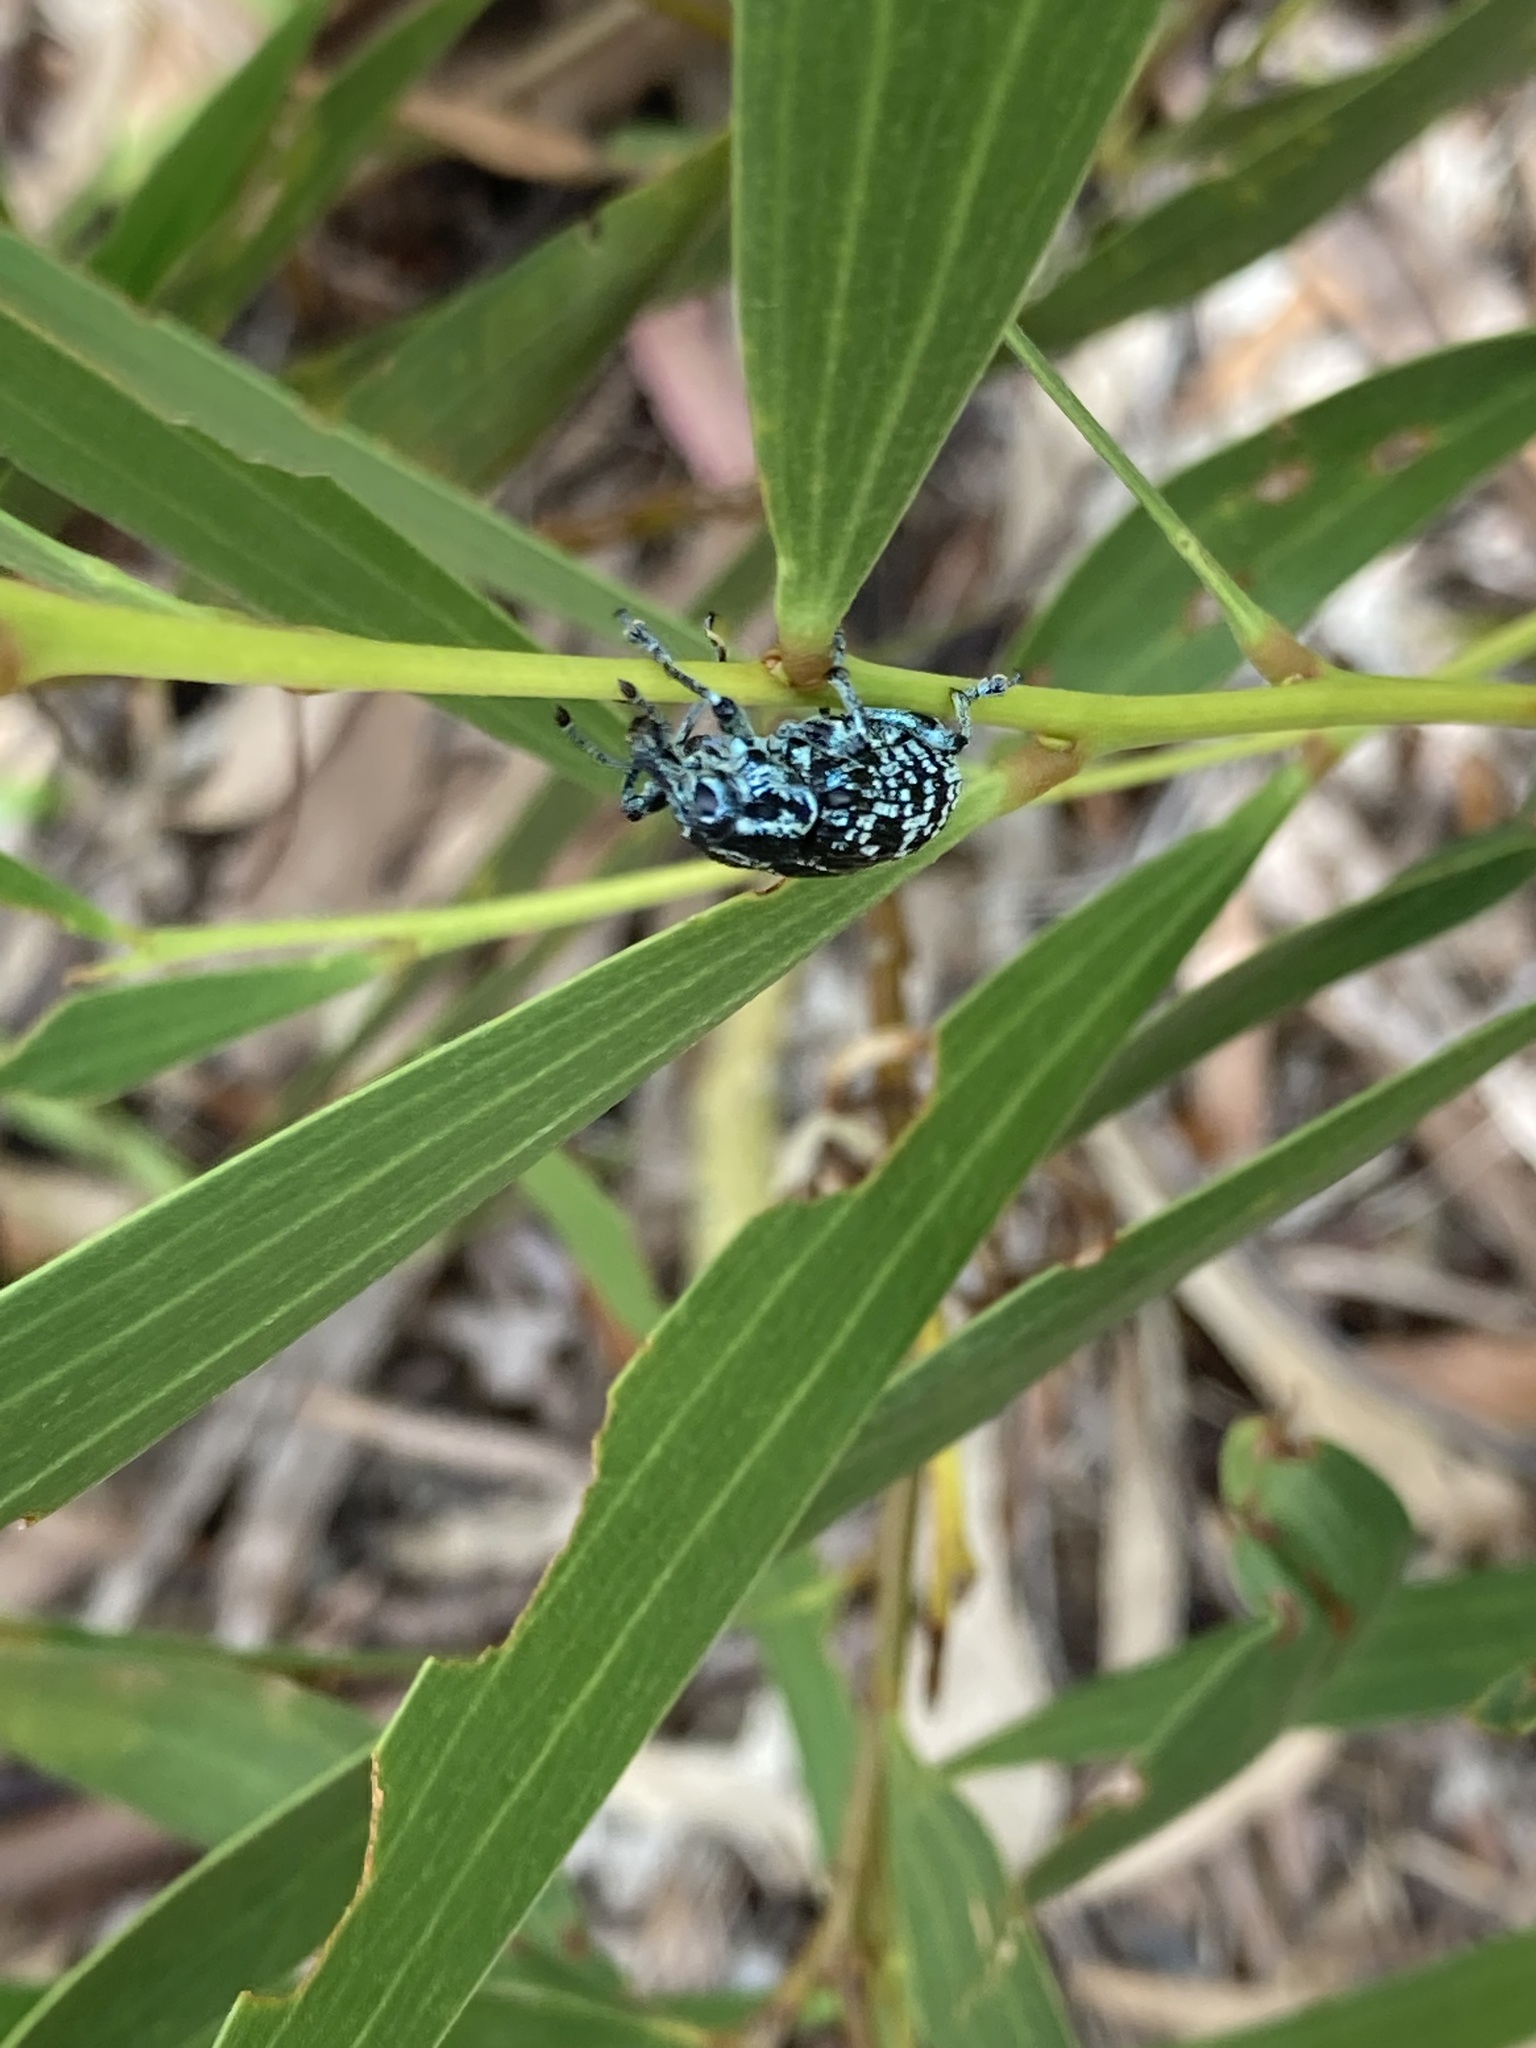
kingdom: Animalia
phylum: Arthropoda
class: Insecta
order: Coleoptera
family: Curculionidae
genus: Chrysolopus
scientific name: Chrysolopus spectabilis
